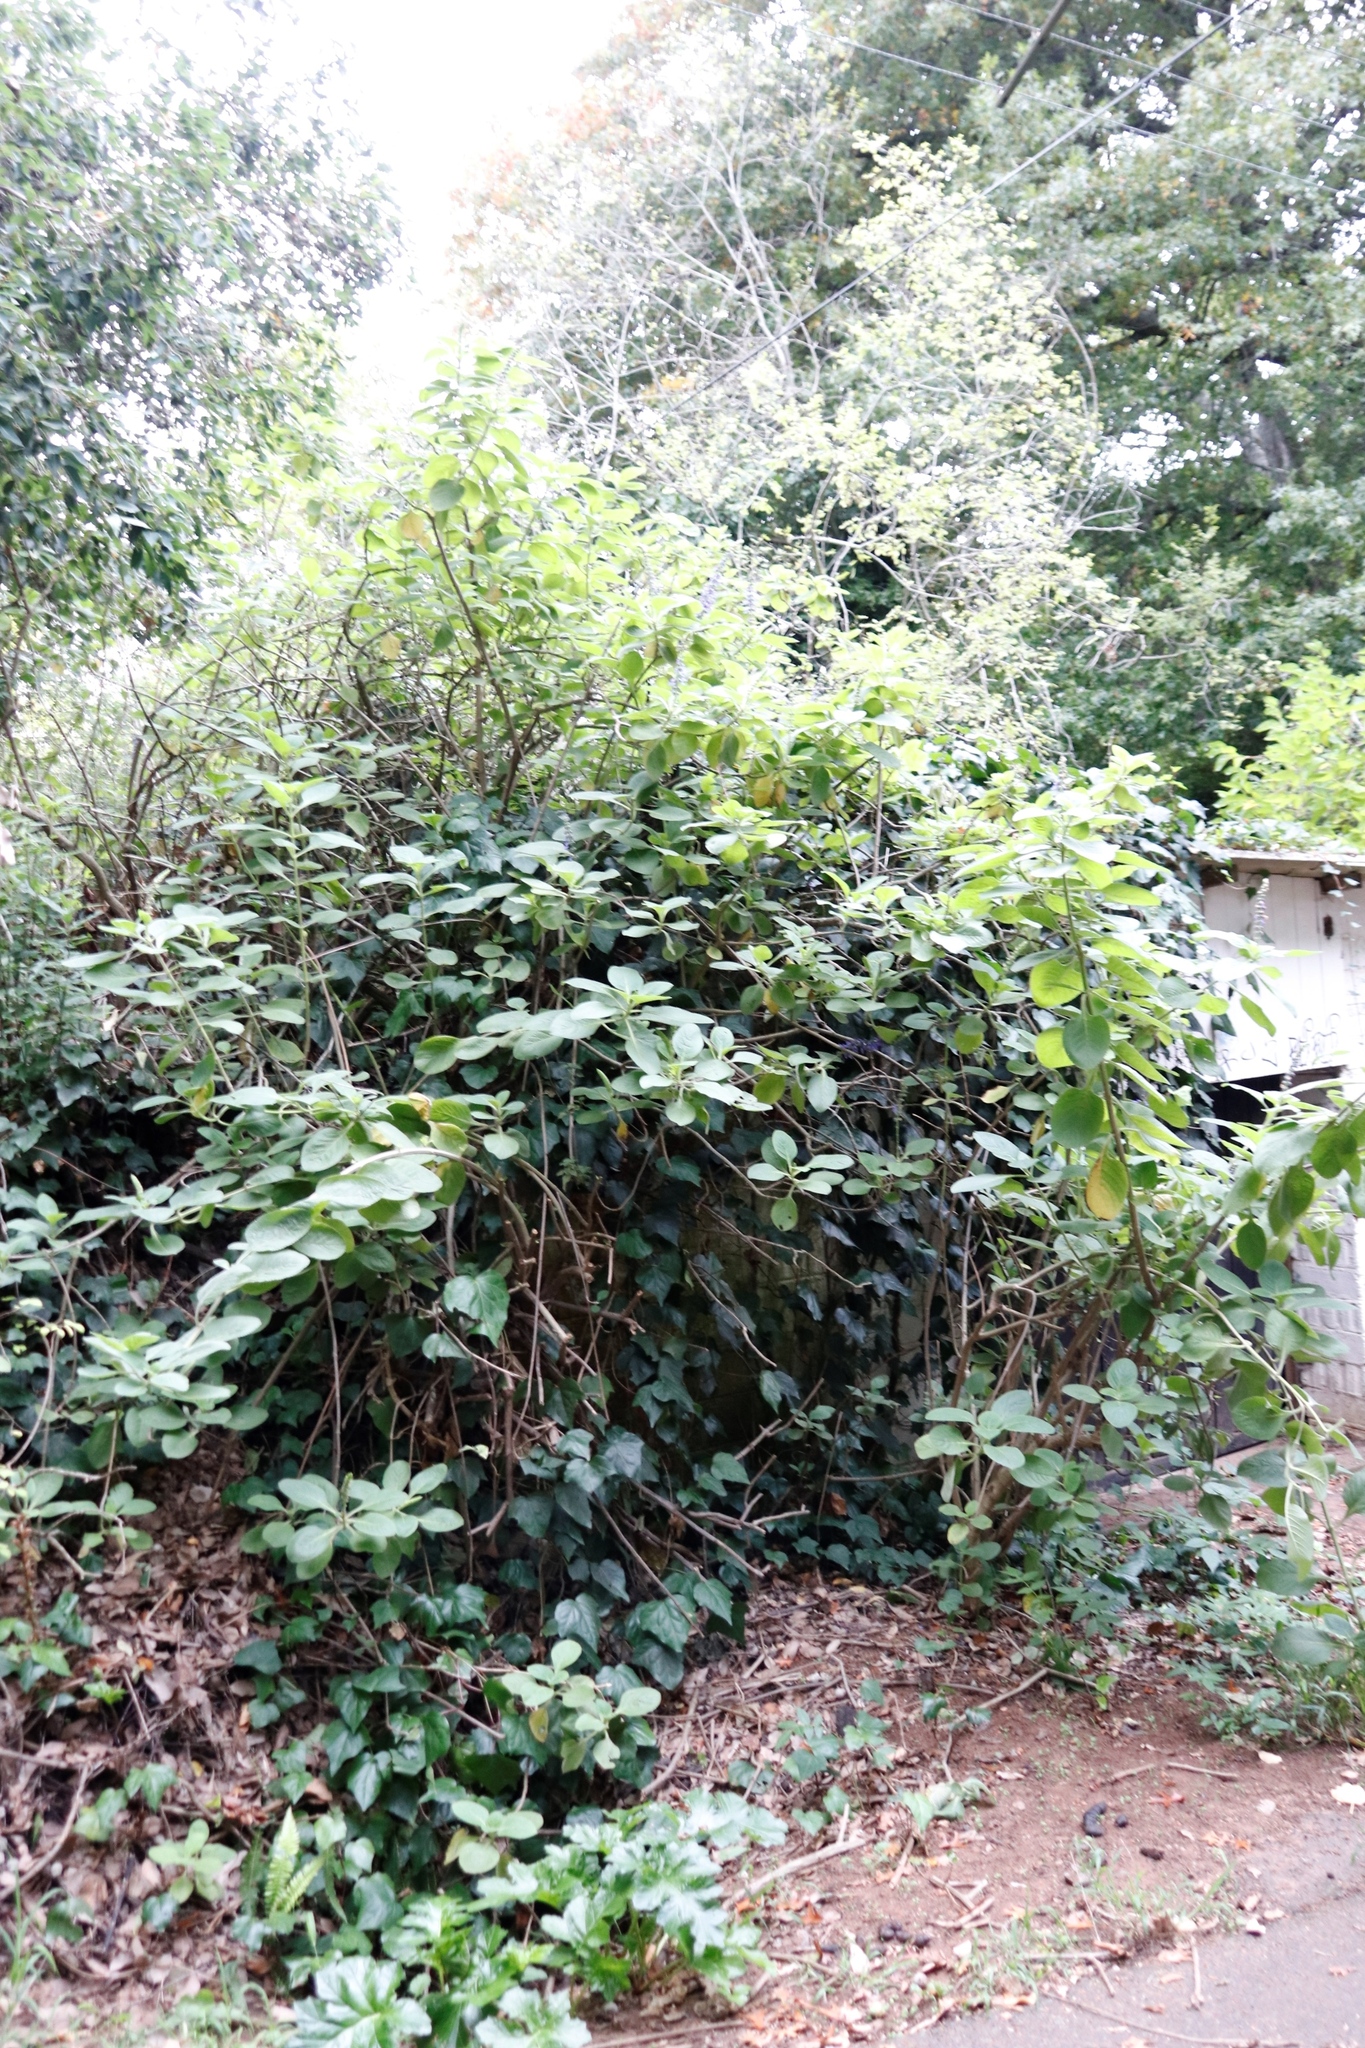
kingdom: Plantae
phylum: Tracheophyta
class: Magnoliopsida
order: Lamiales
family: Lamiaceae
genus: Coleus
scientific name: Coleus barbatus
